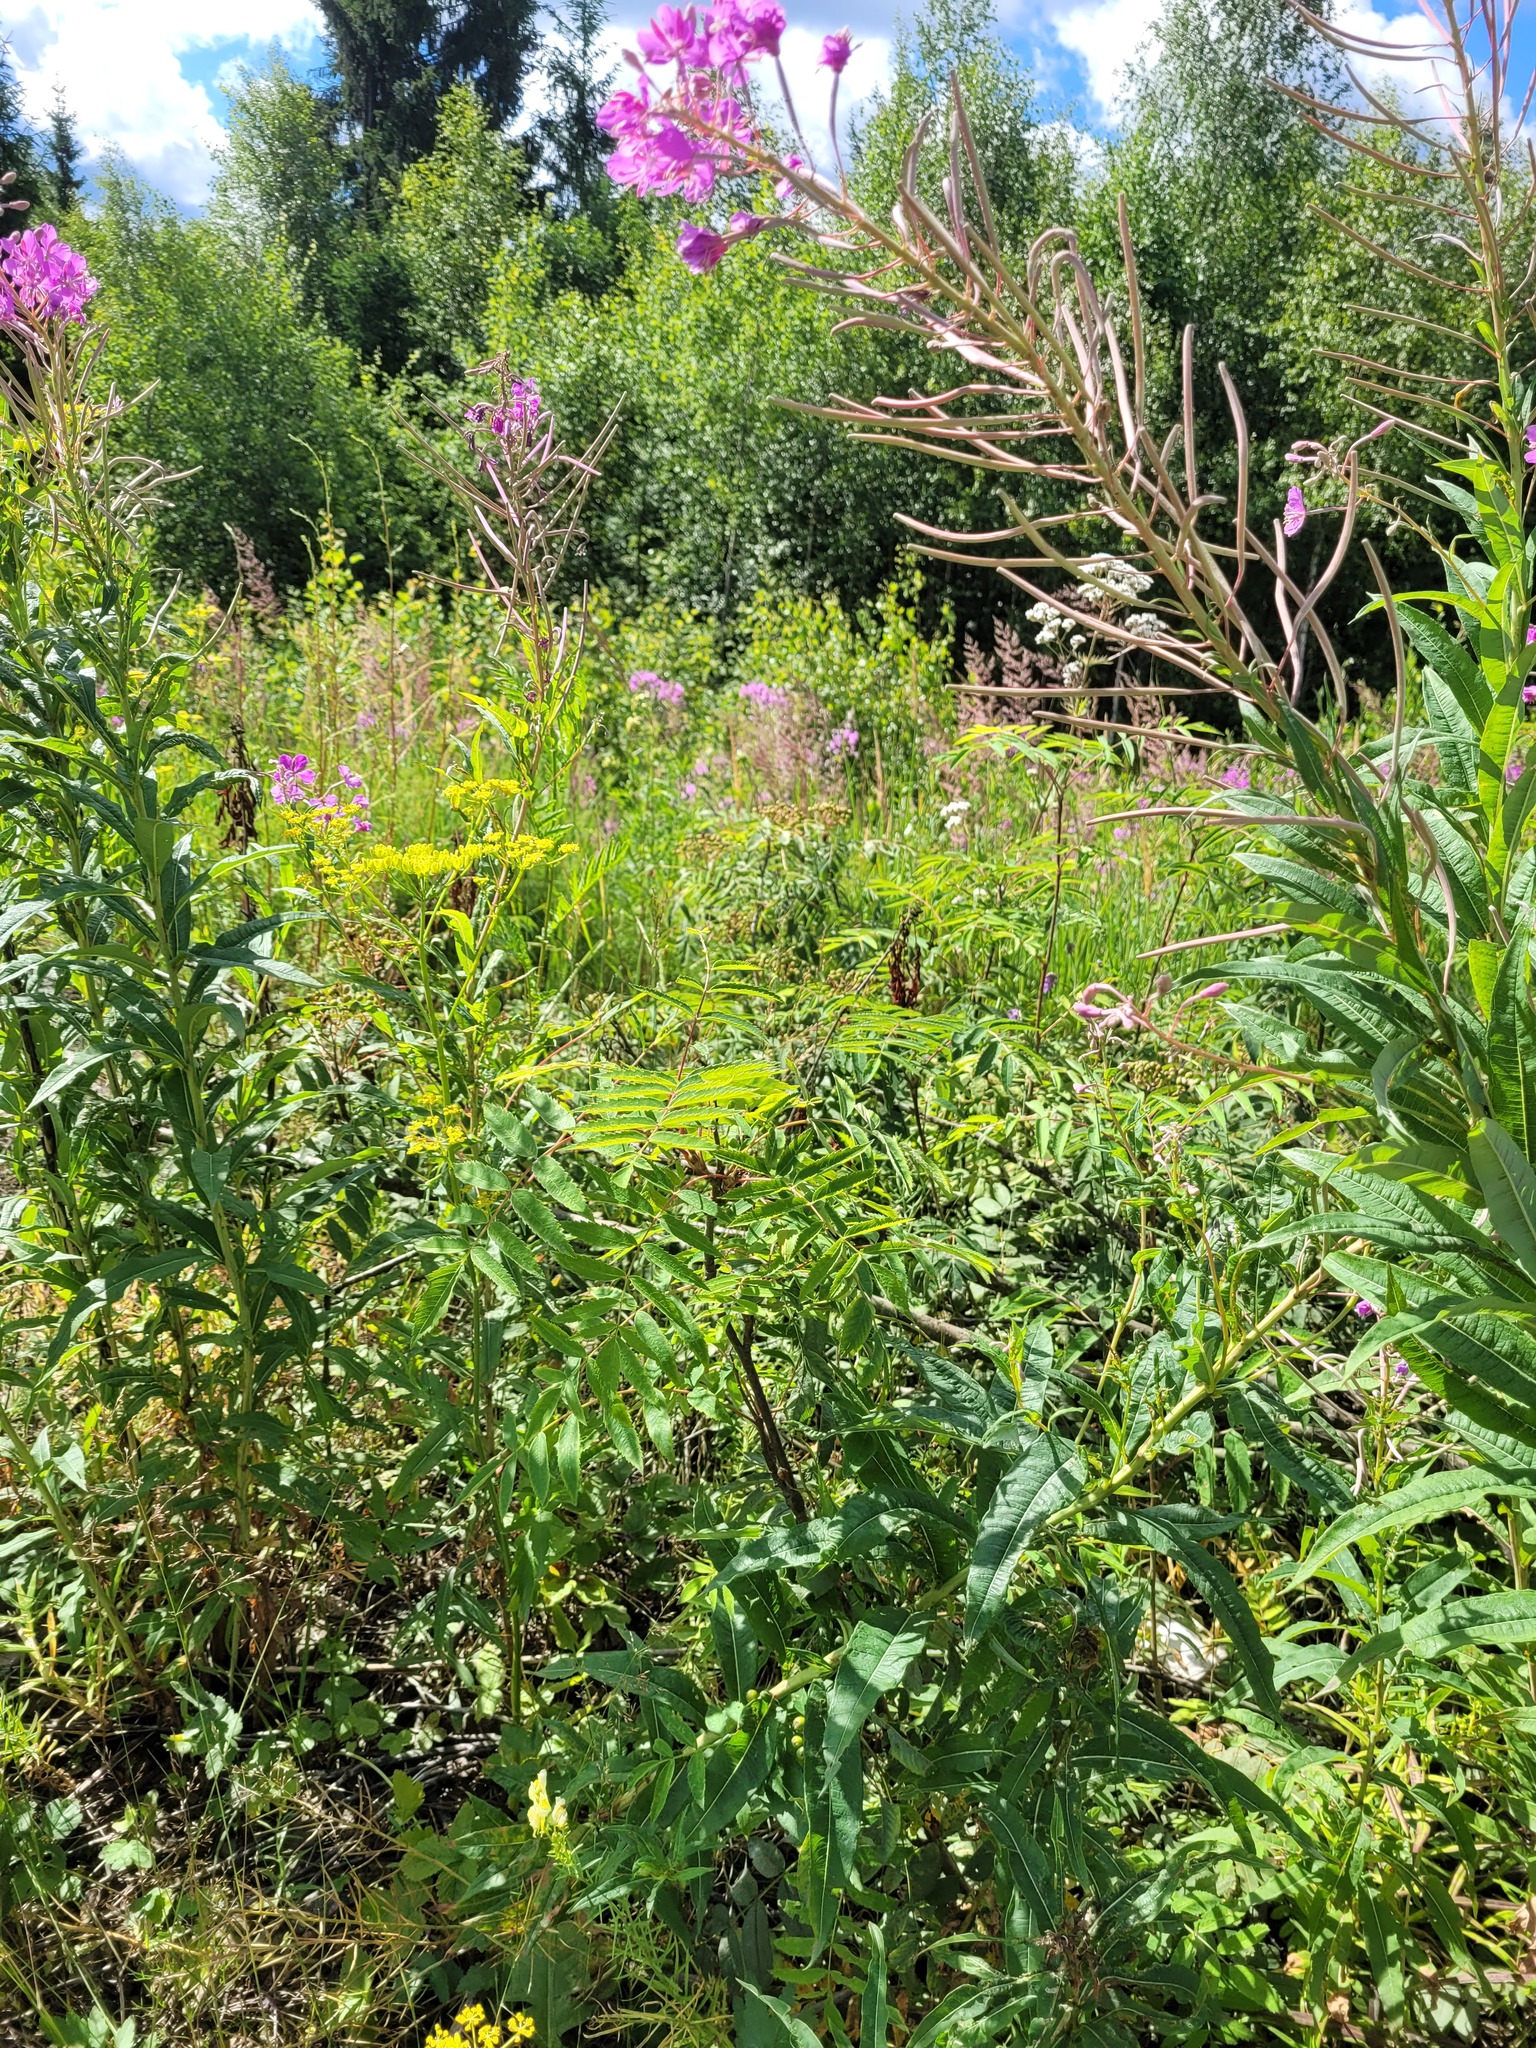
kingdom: Plantae
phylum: Tracheophyta
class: Magnoliopsida
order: Rosales
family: Rosaceae
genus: Sorbus
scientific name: Sorbus aucuparia
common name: Rowan
